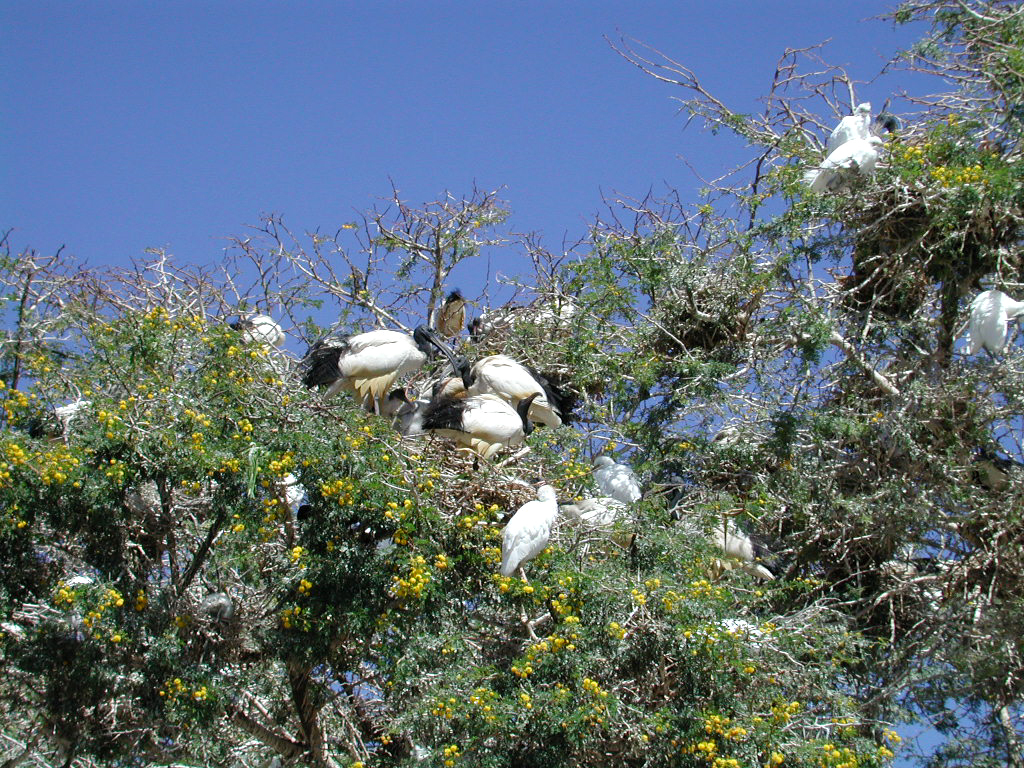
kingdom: Animalia
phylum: Chordata
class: Aves
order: Pelecaniformes
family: Threskiornithidae
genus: Threskiornis
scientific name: Threskiornis aethiopicus
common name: Sacred ibis
